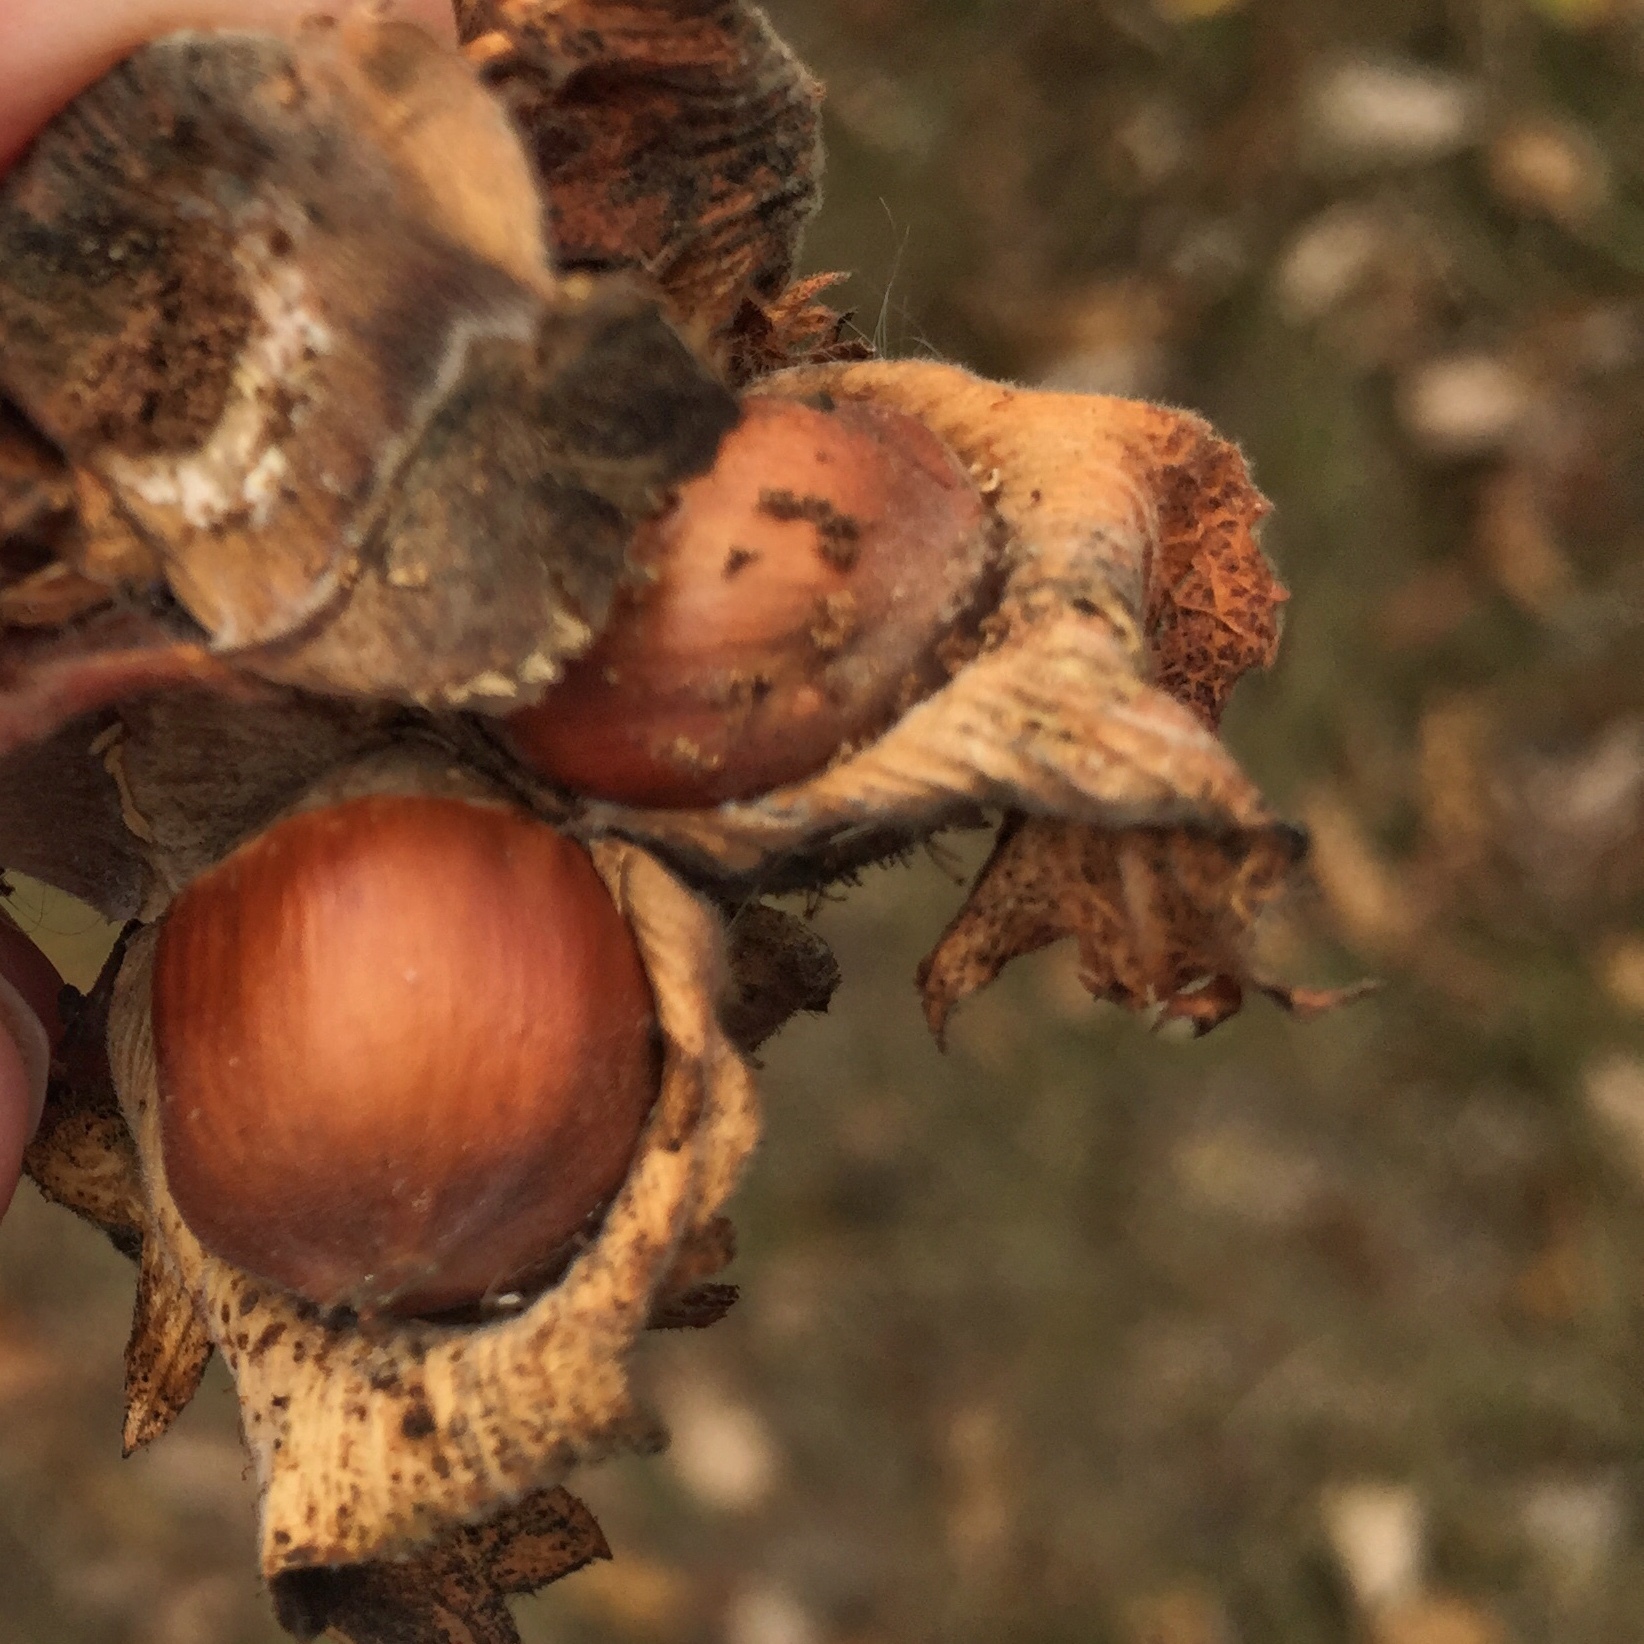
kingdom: Plantae
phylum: Tracheophyta
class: Magnoliopsida
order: Fagales
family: Betulaceae
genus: Corylus
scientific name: Corylus americana
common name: American hazel
